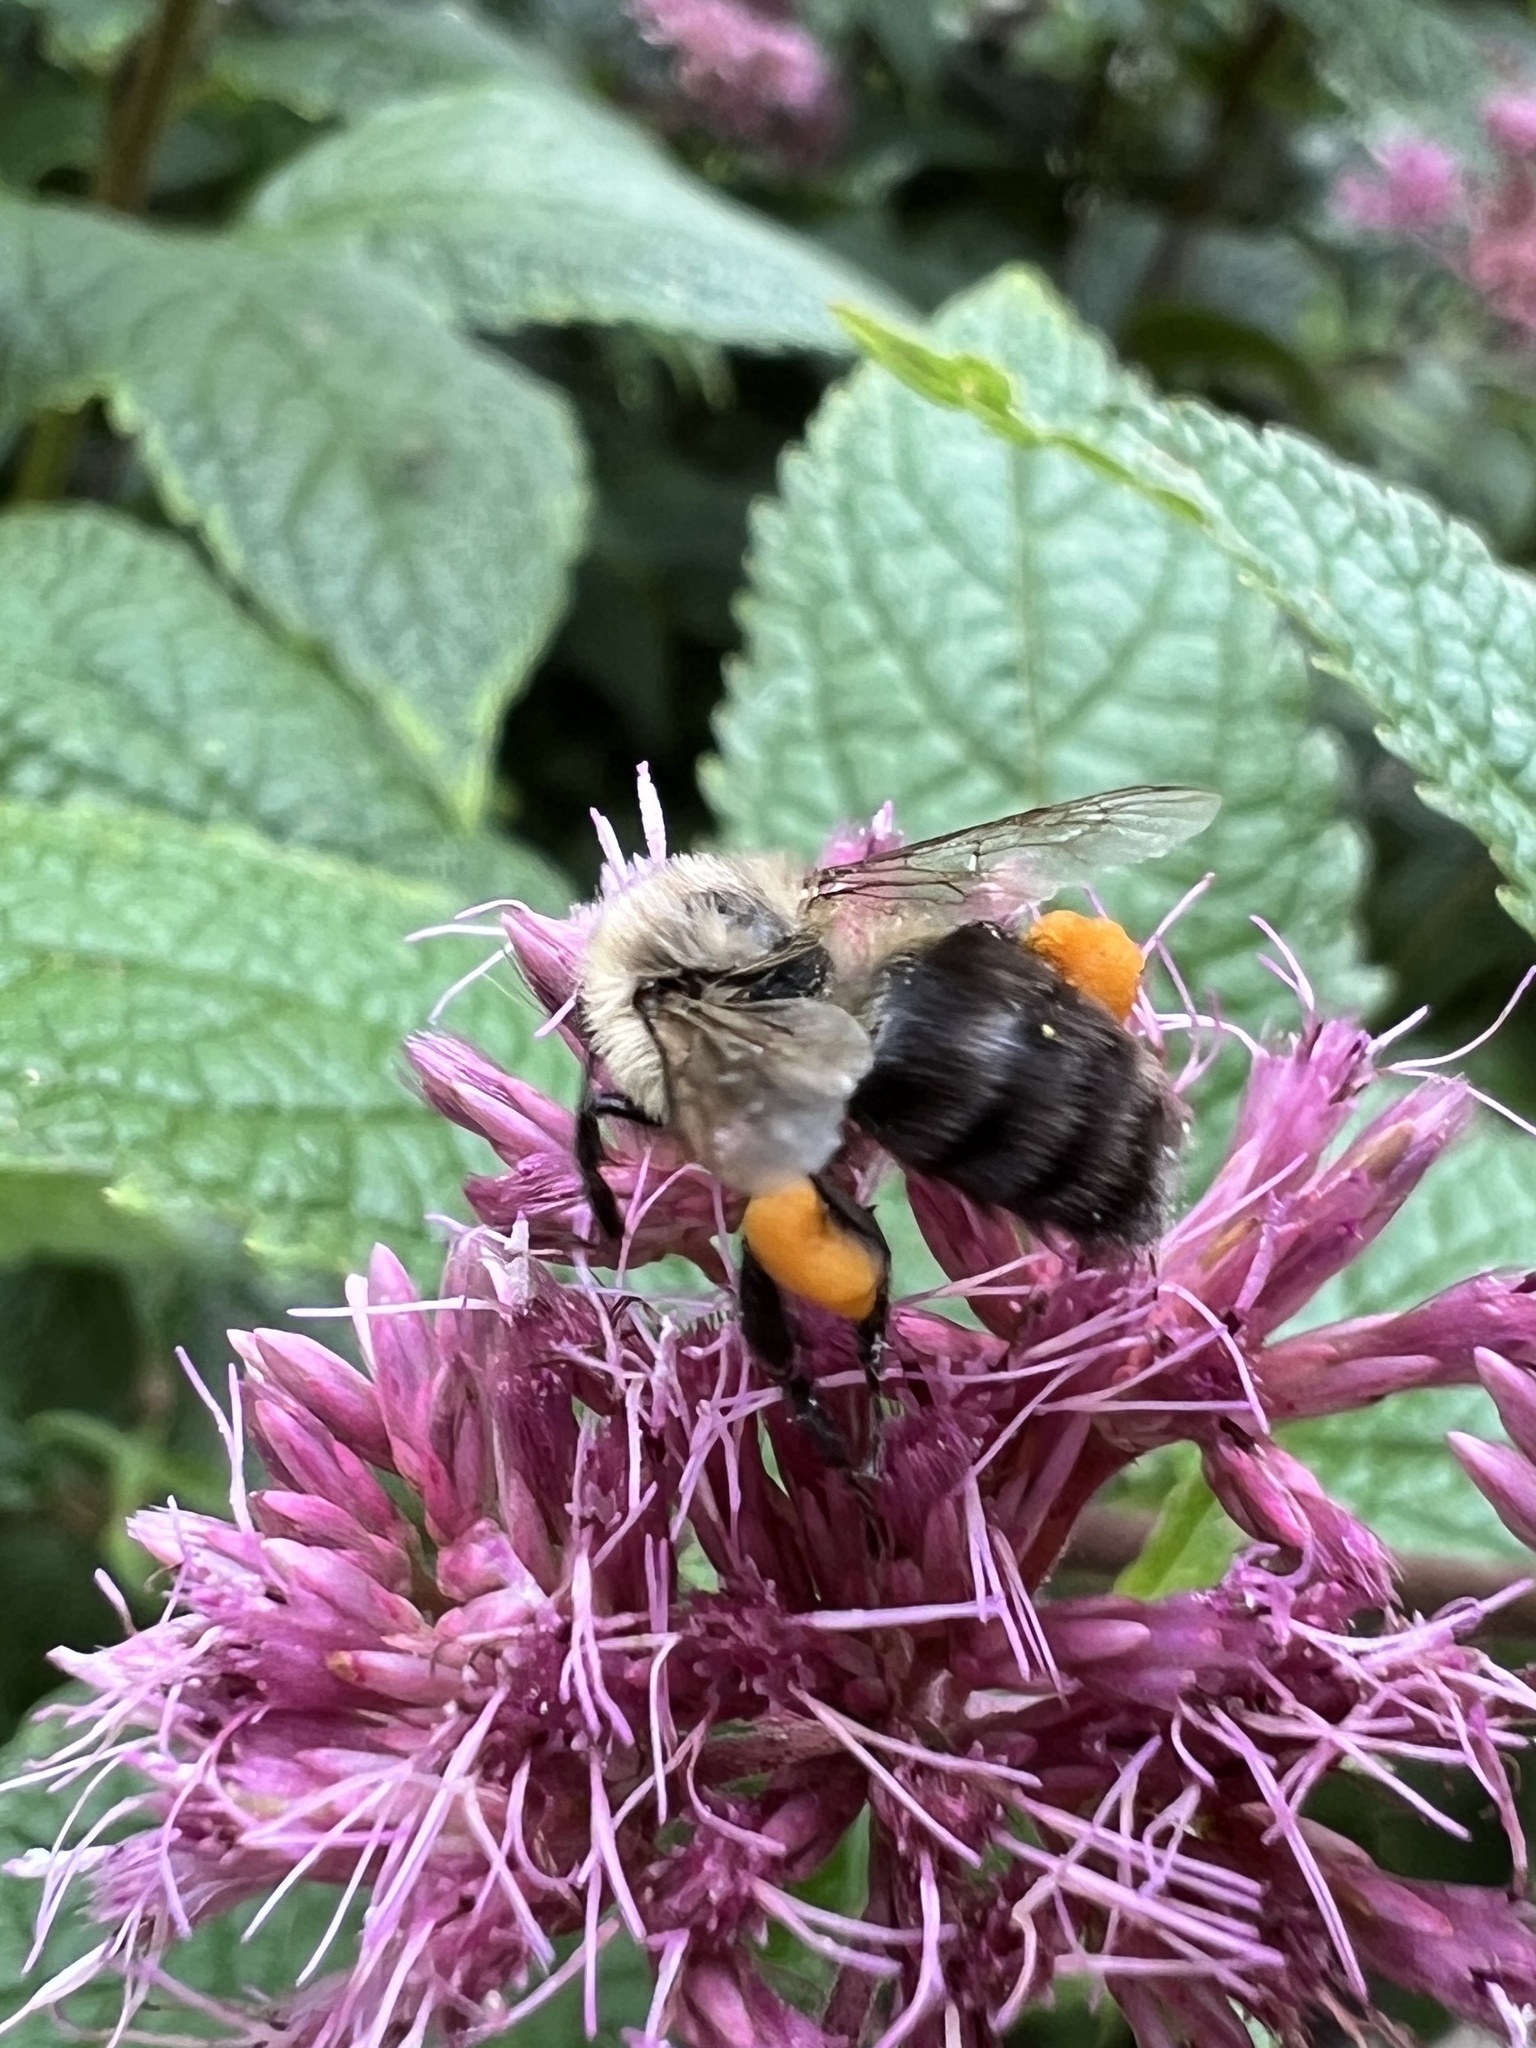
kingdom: Animalia
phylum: Arthropoda
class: Insecta
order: Hymenoptera
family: Apidae
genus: Bombus
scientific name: Bombus impatiens
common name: Common eastern bumble bee
